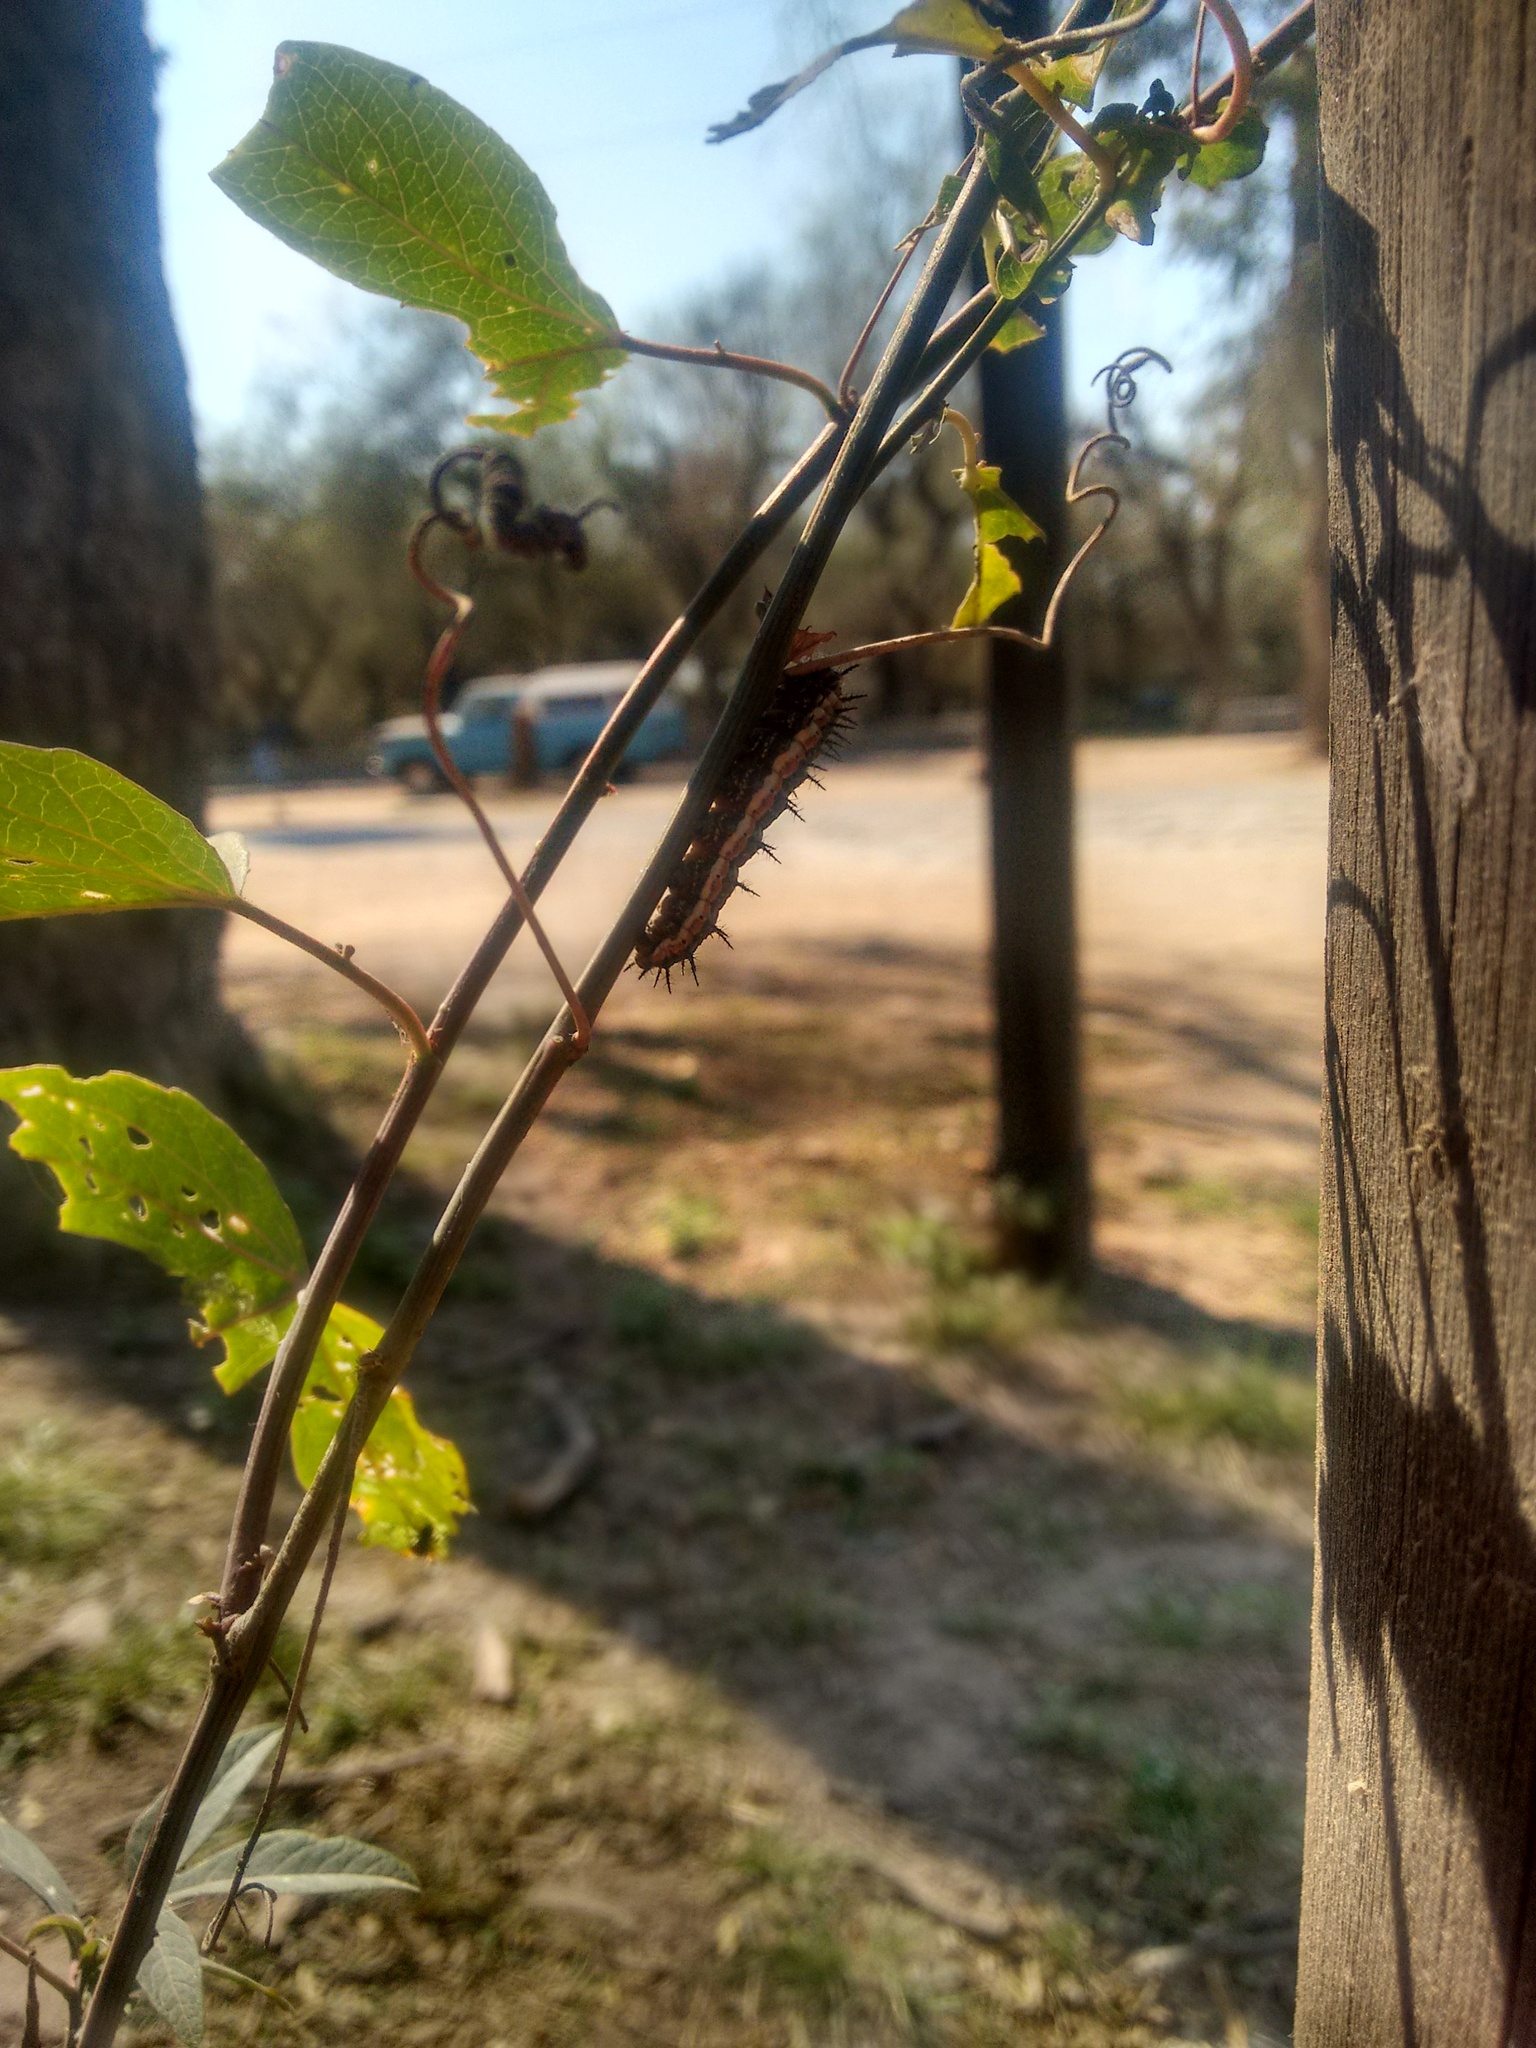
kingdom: Animalia
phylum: Arthropoda
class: Insecta
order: Lepidoptera
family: Nymphalidae
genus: Dione
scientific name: Dione vanillae
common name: Gulf fritillary
